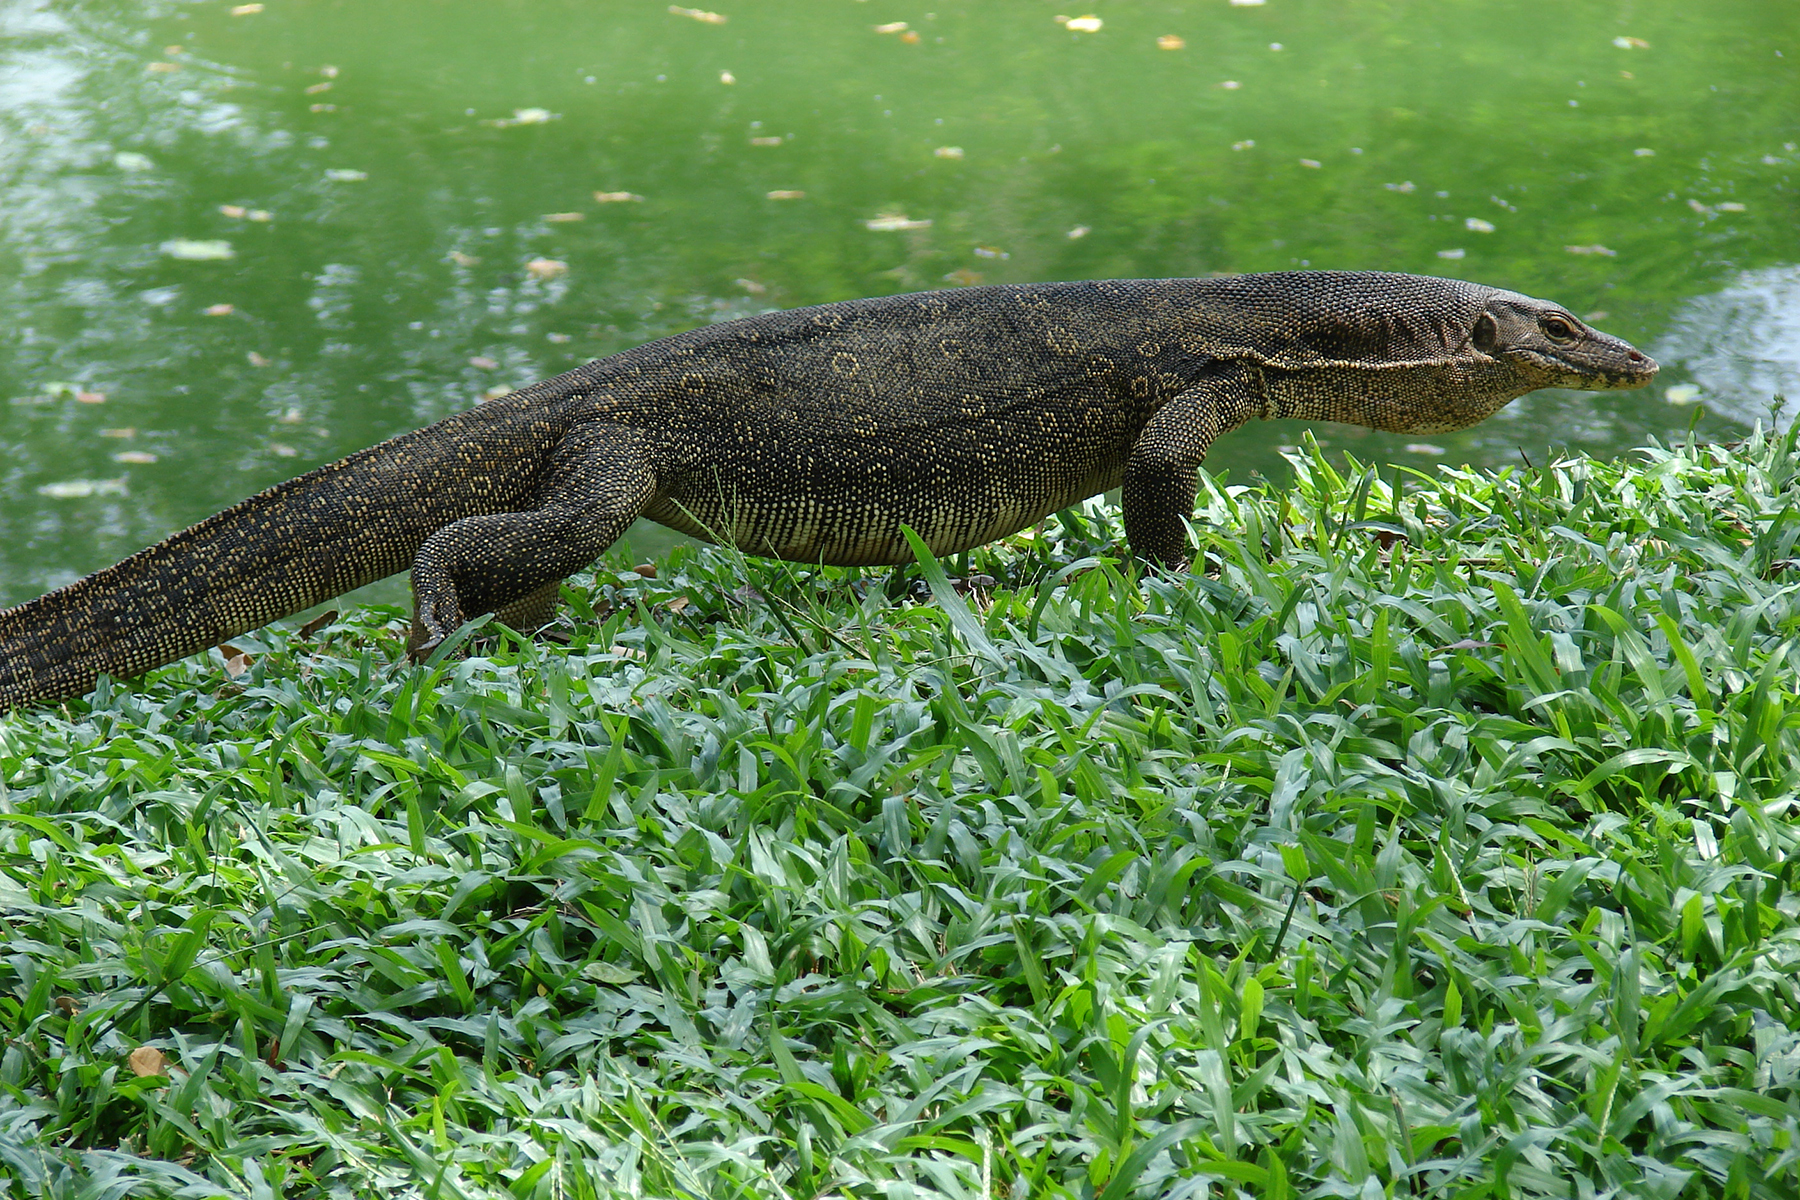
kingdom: Animalia
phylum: Chordata
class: Squamata
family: Varanidae
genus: Varanus
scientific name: Varanus salvator
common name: Common water monitor
